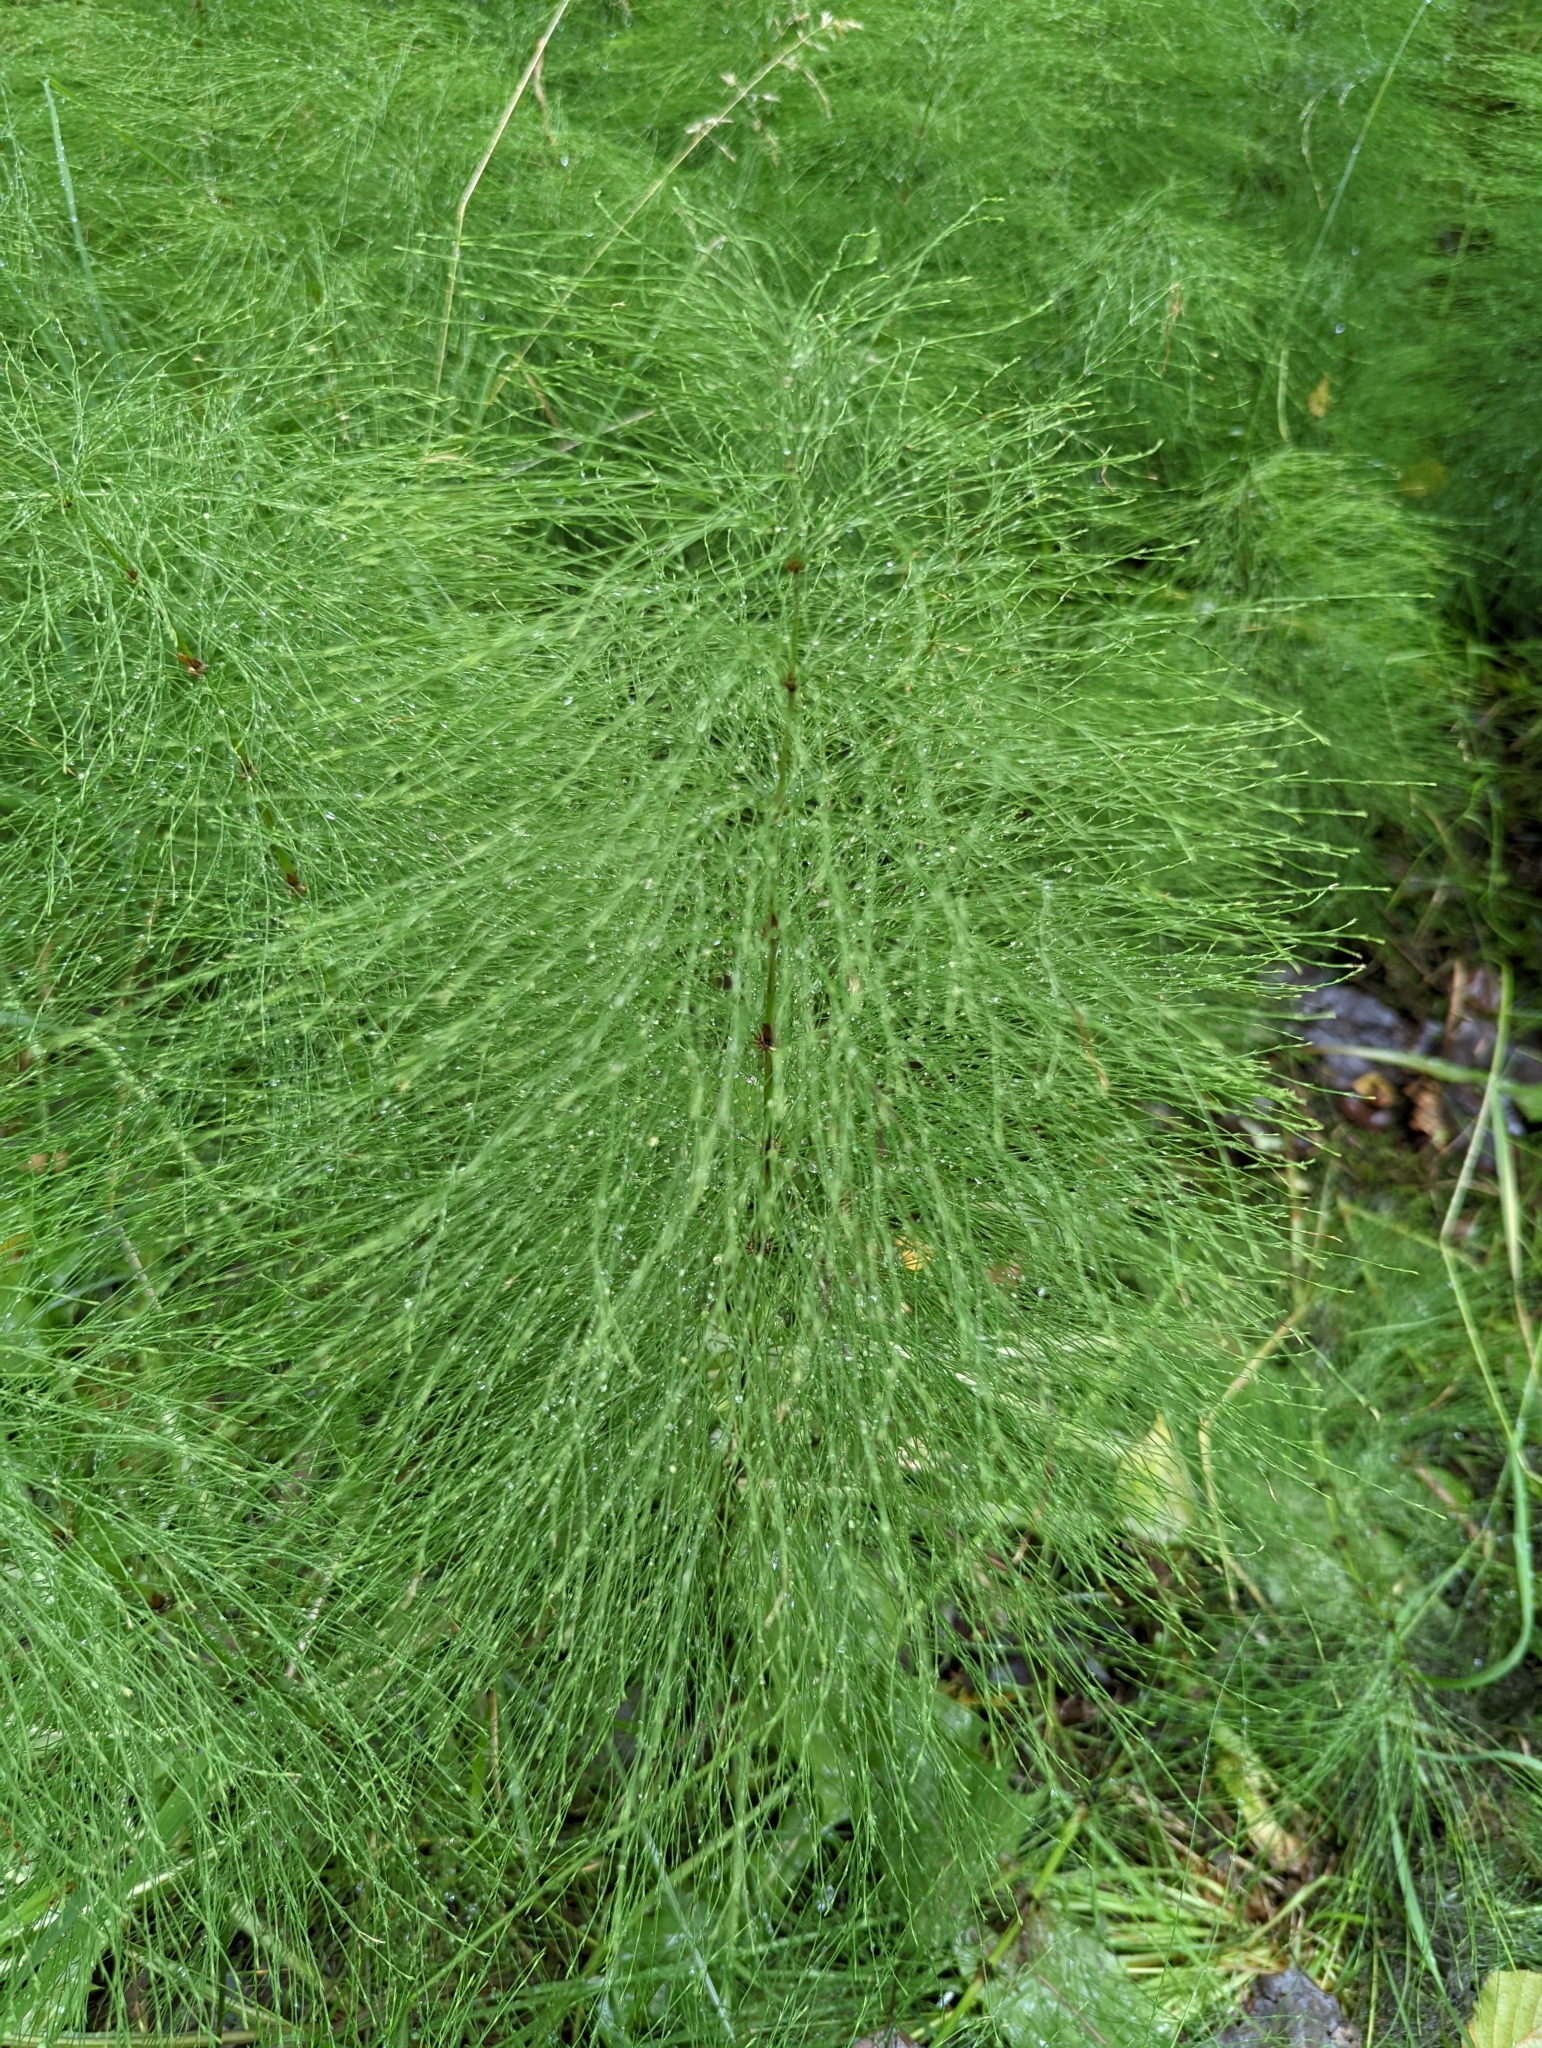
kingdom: Plantae
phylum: Tracheophyta
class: Polypodiopsida
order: Equisetales
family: Equisetaceae
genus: Equisetum
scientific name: Equisetum sylvaticum
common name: Wood horsetail
